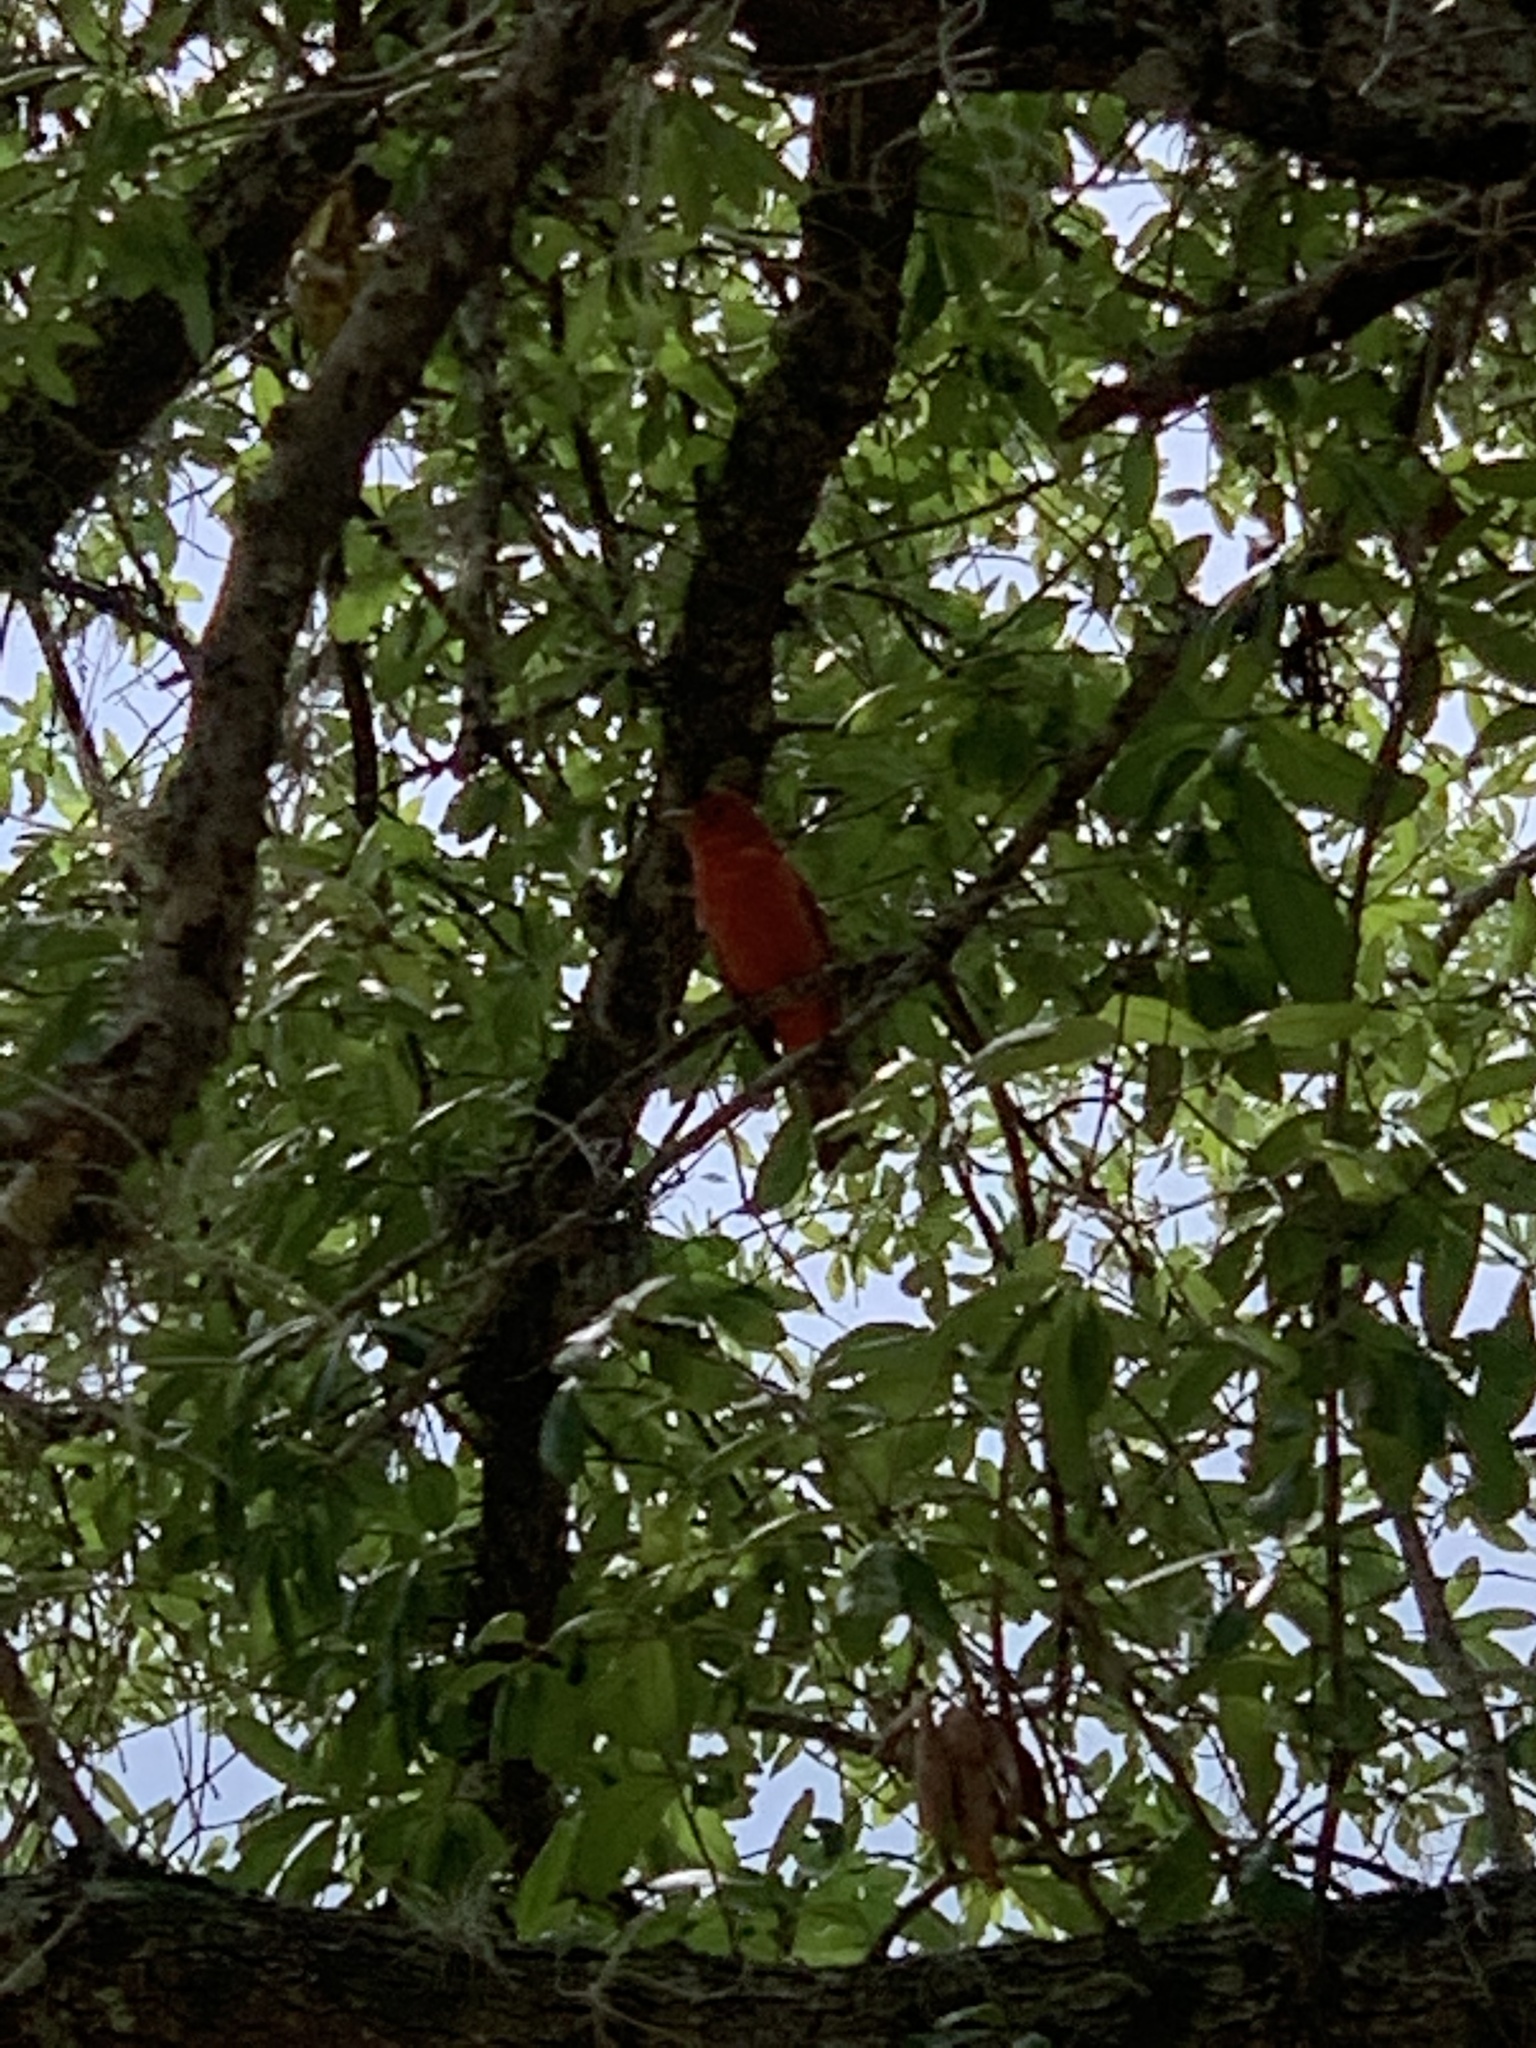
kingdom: Animalia
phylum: Chordata
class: Aves
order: Passeriformes
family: Cardinalidae
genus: Piranga
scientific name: Piranga rubra
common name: Summer tanager
